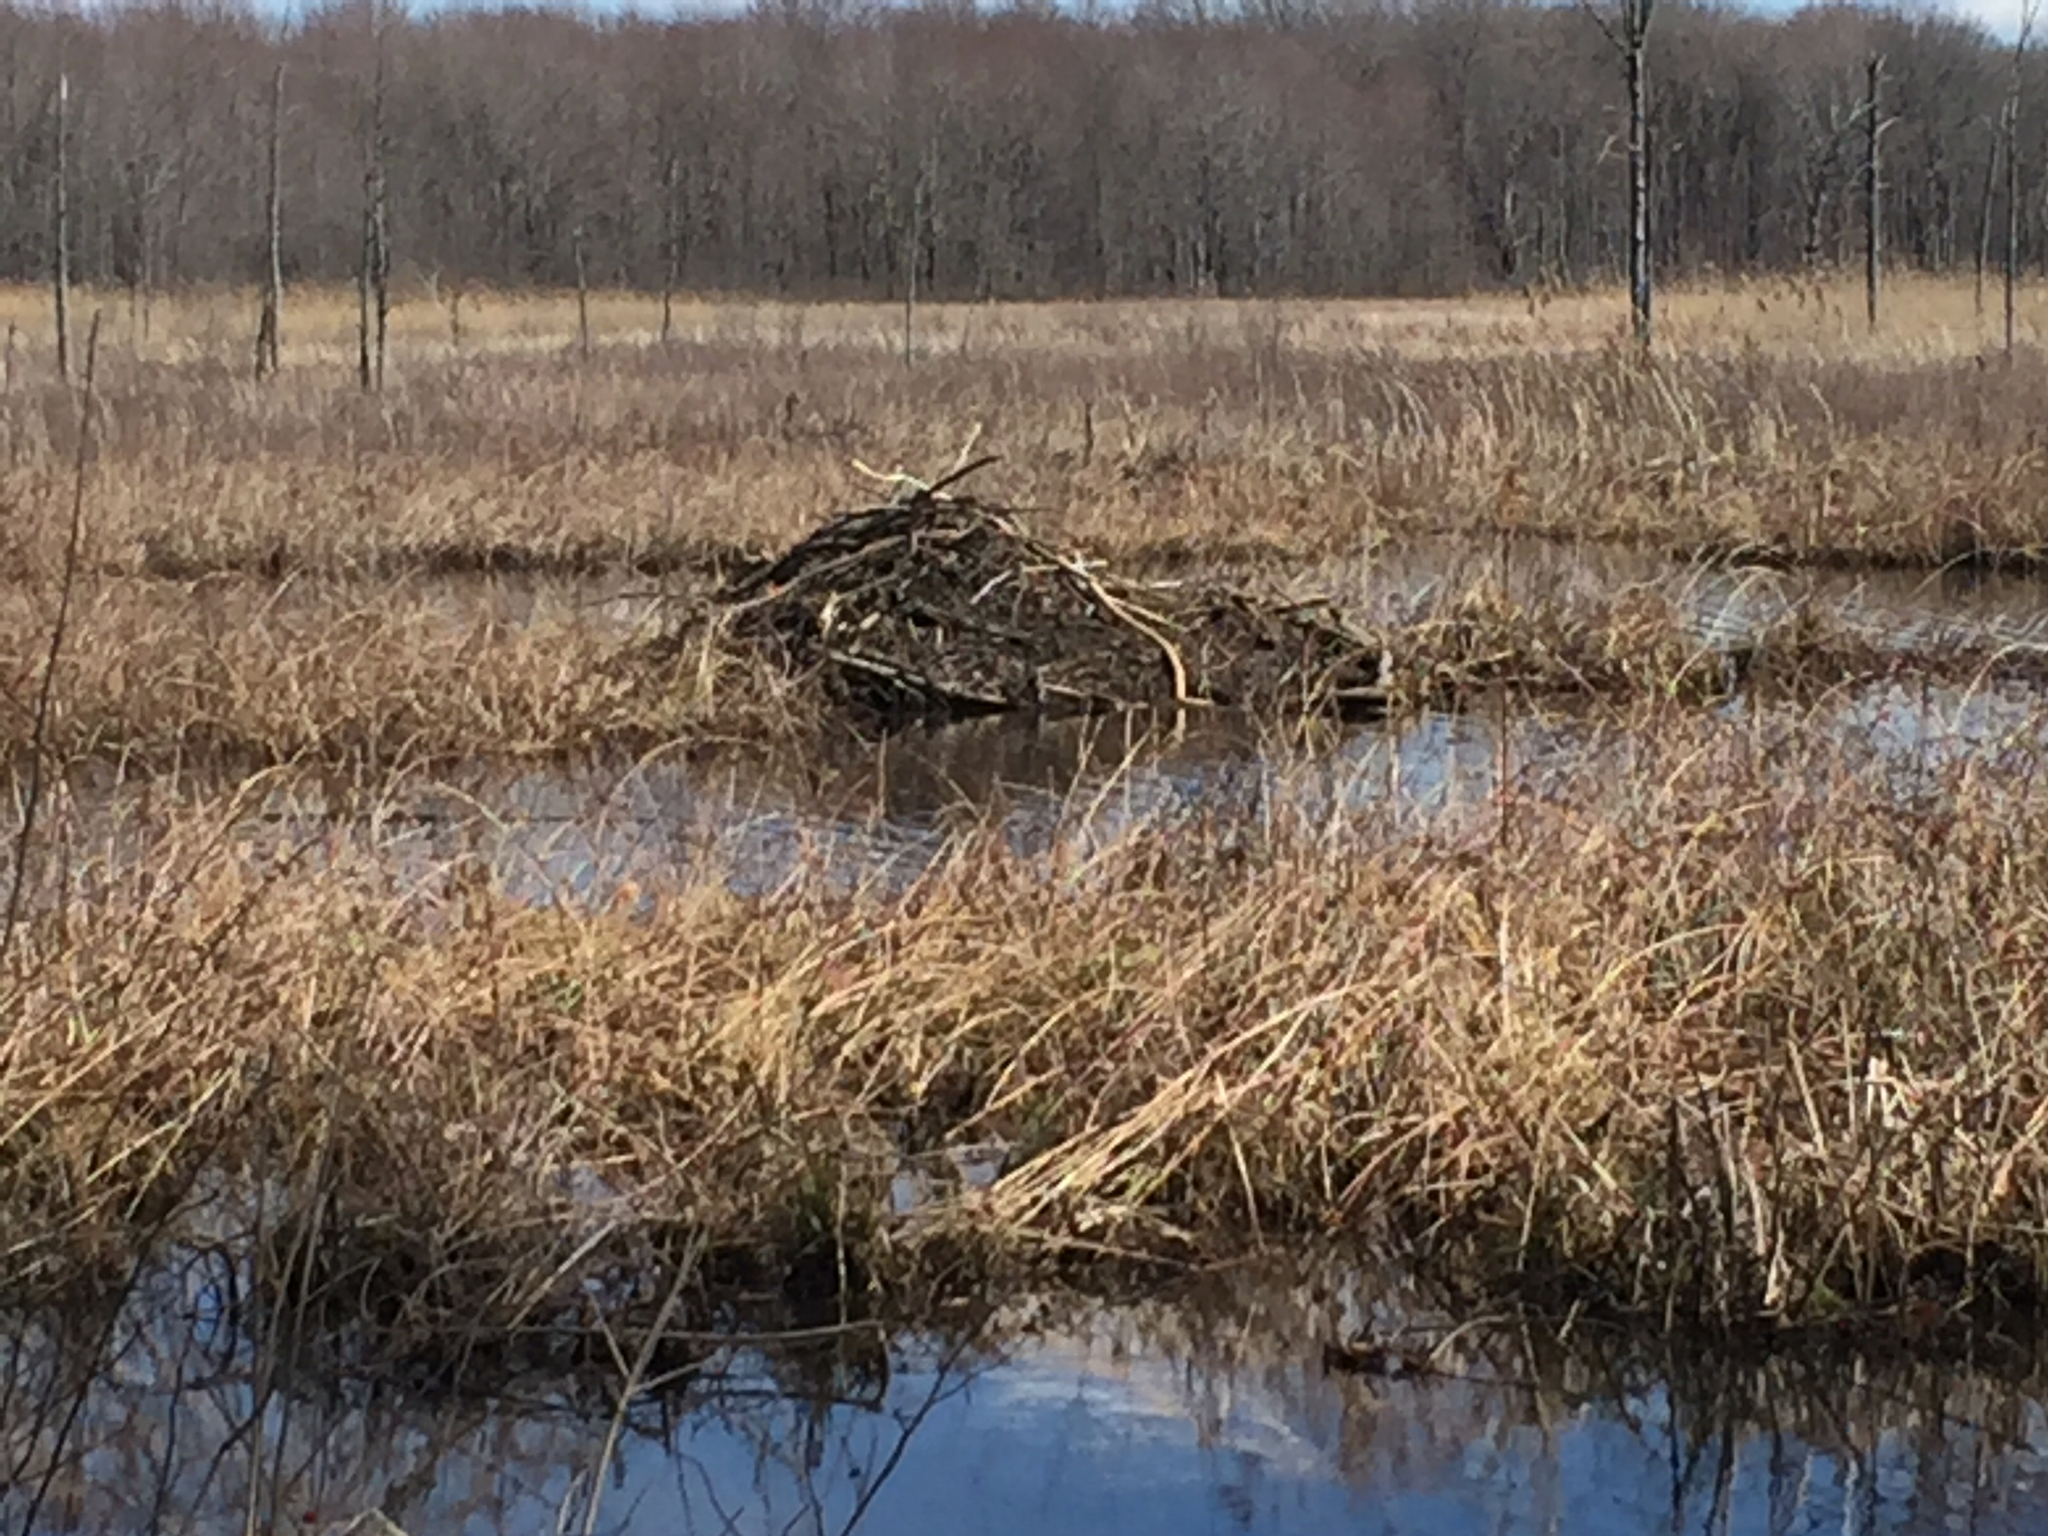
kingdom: Animalia
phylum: Chordata
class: Mammalia
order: Rodentia
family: Castoridae
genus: Castor
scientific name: Castor canadensis
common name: American beaver
